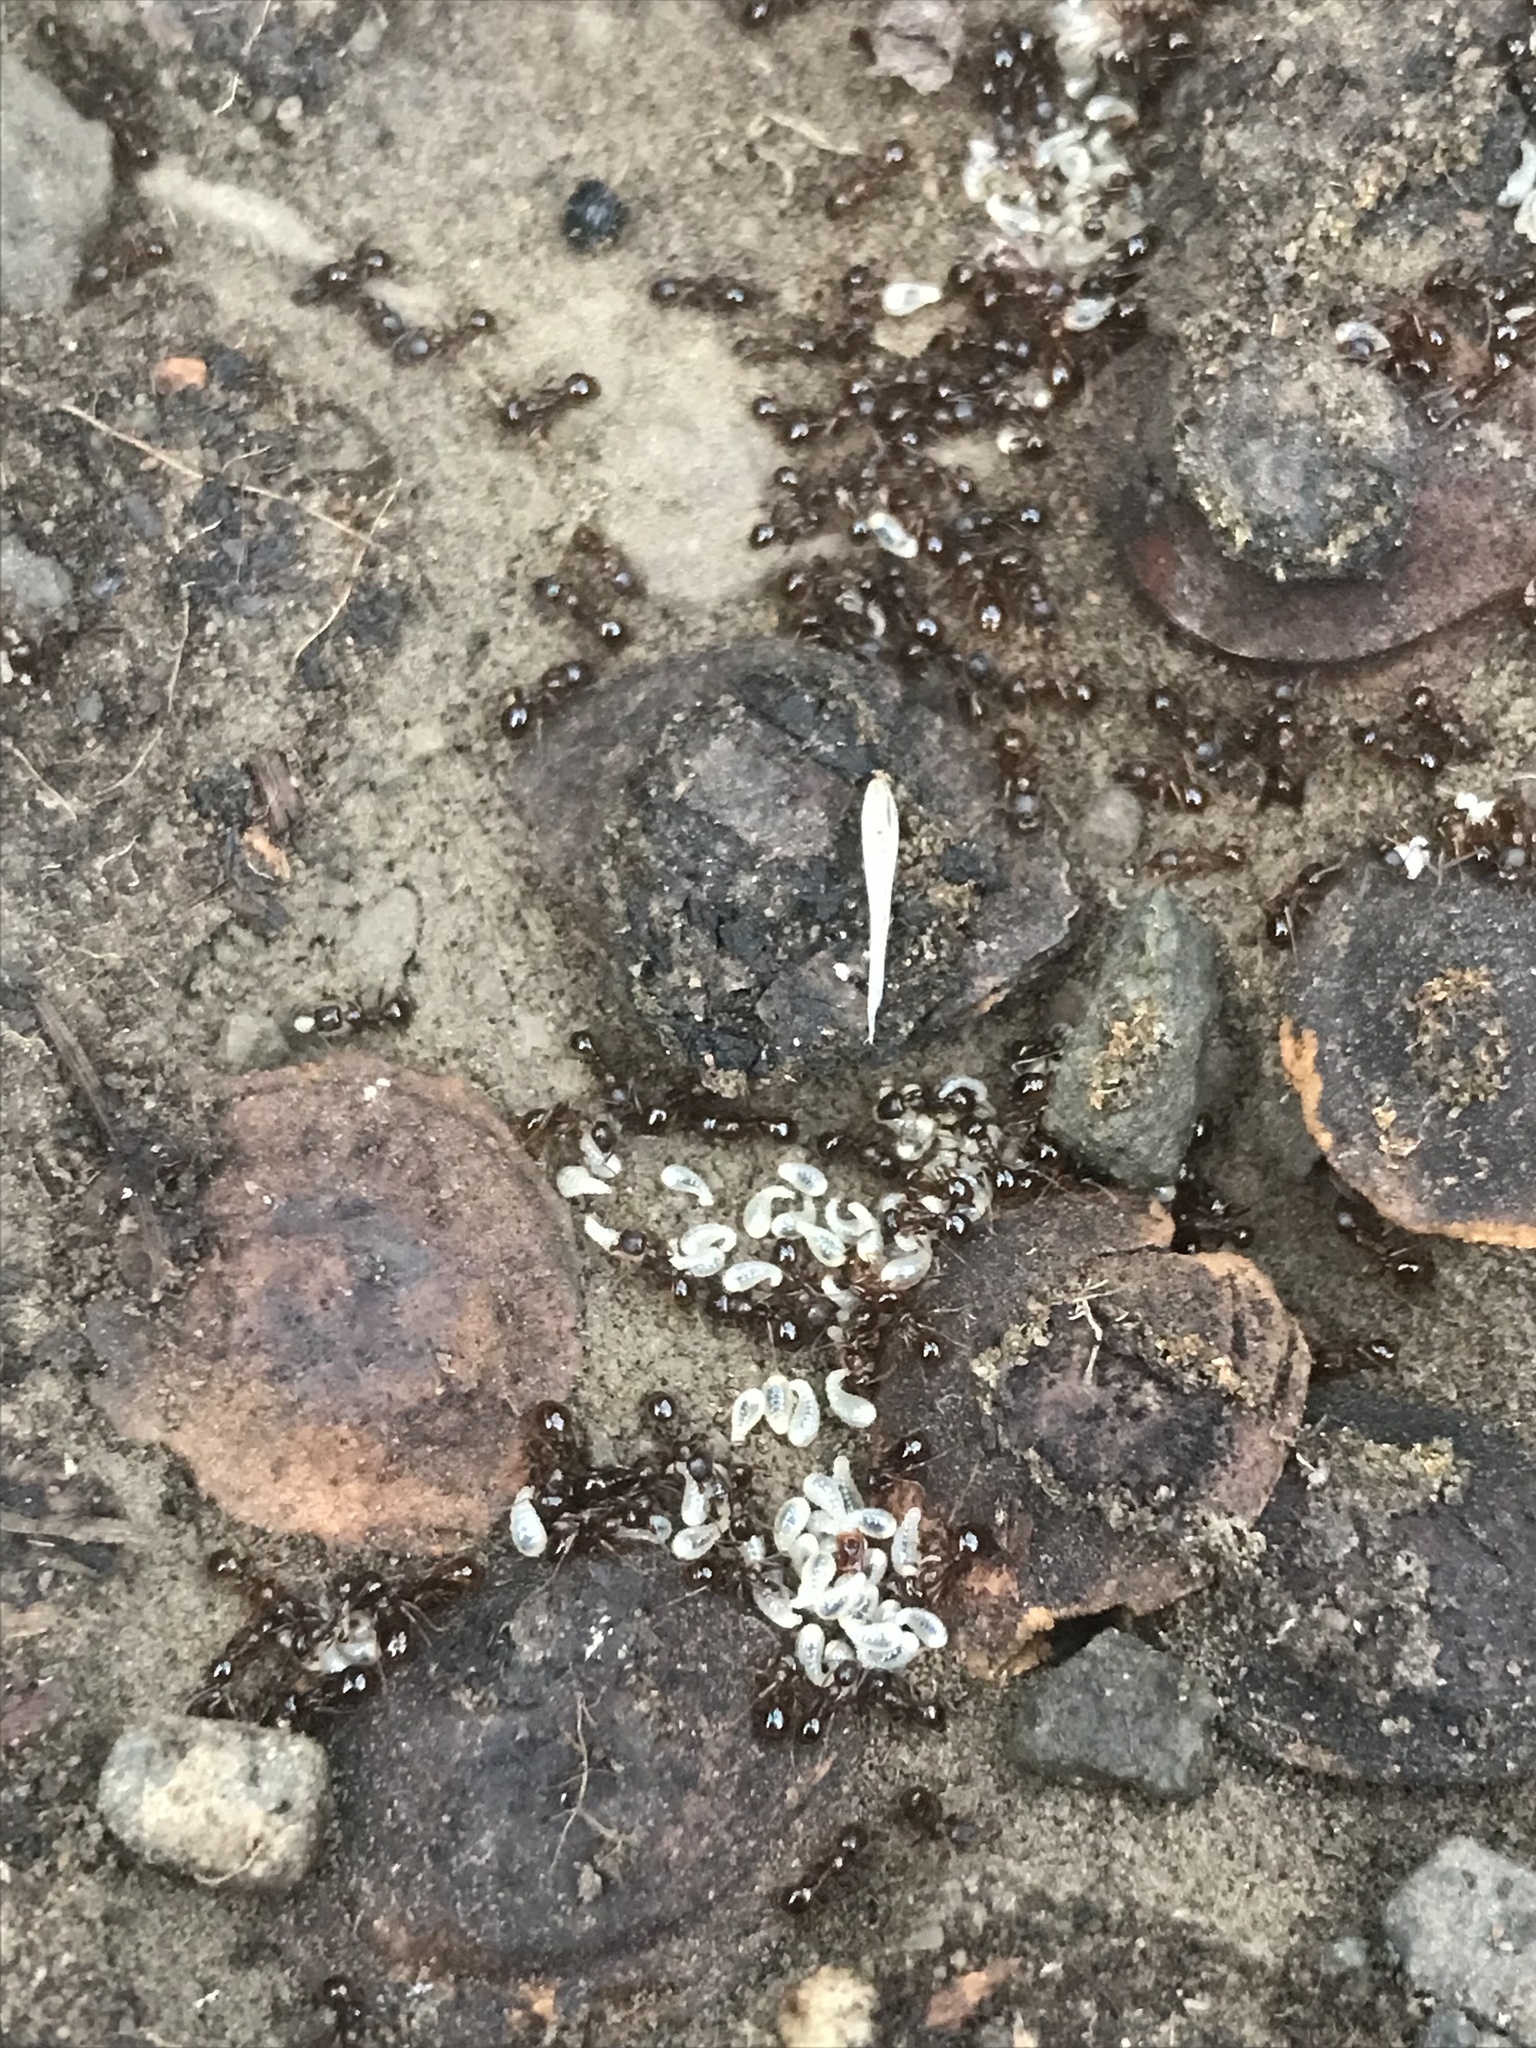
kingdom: Animalia
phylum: Arthropoda
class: Insecta
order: Hymenoptera
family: Formicidae
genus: Aphaenogaster
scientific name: Aphaenogaster occidentalis
